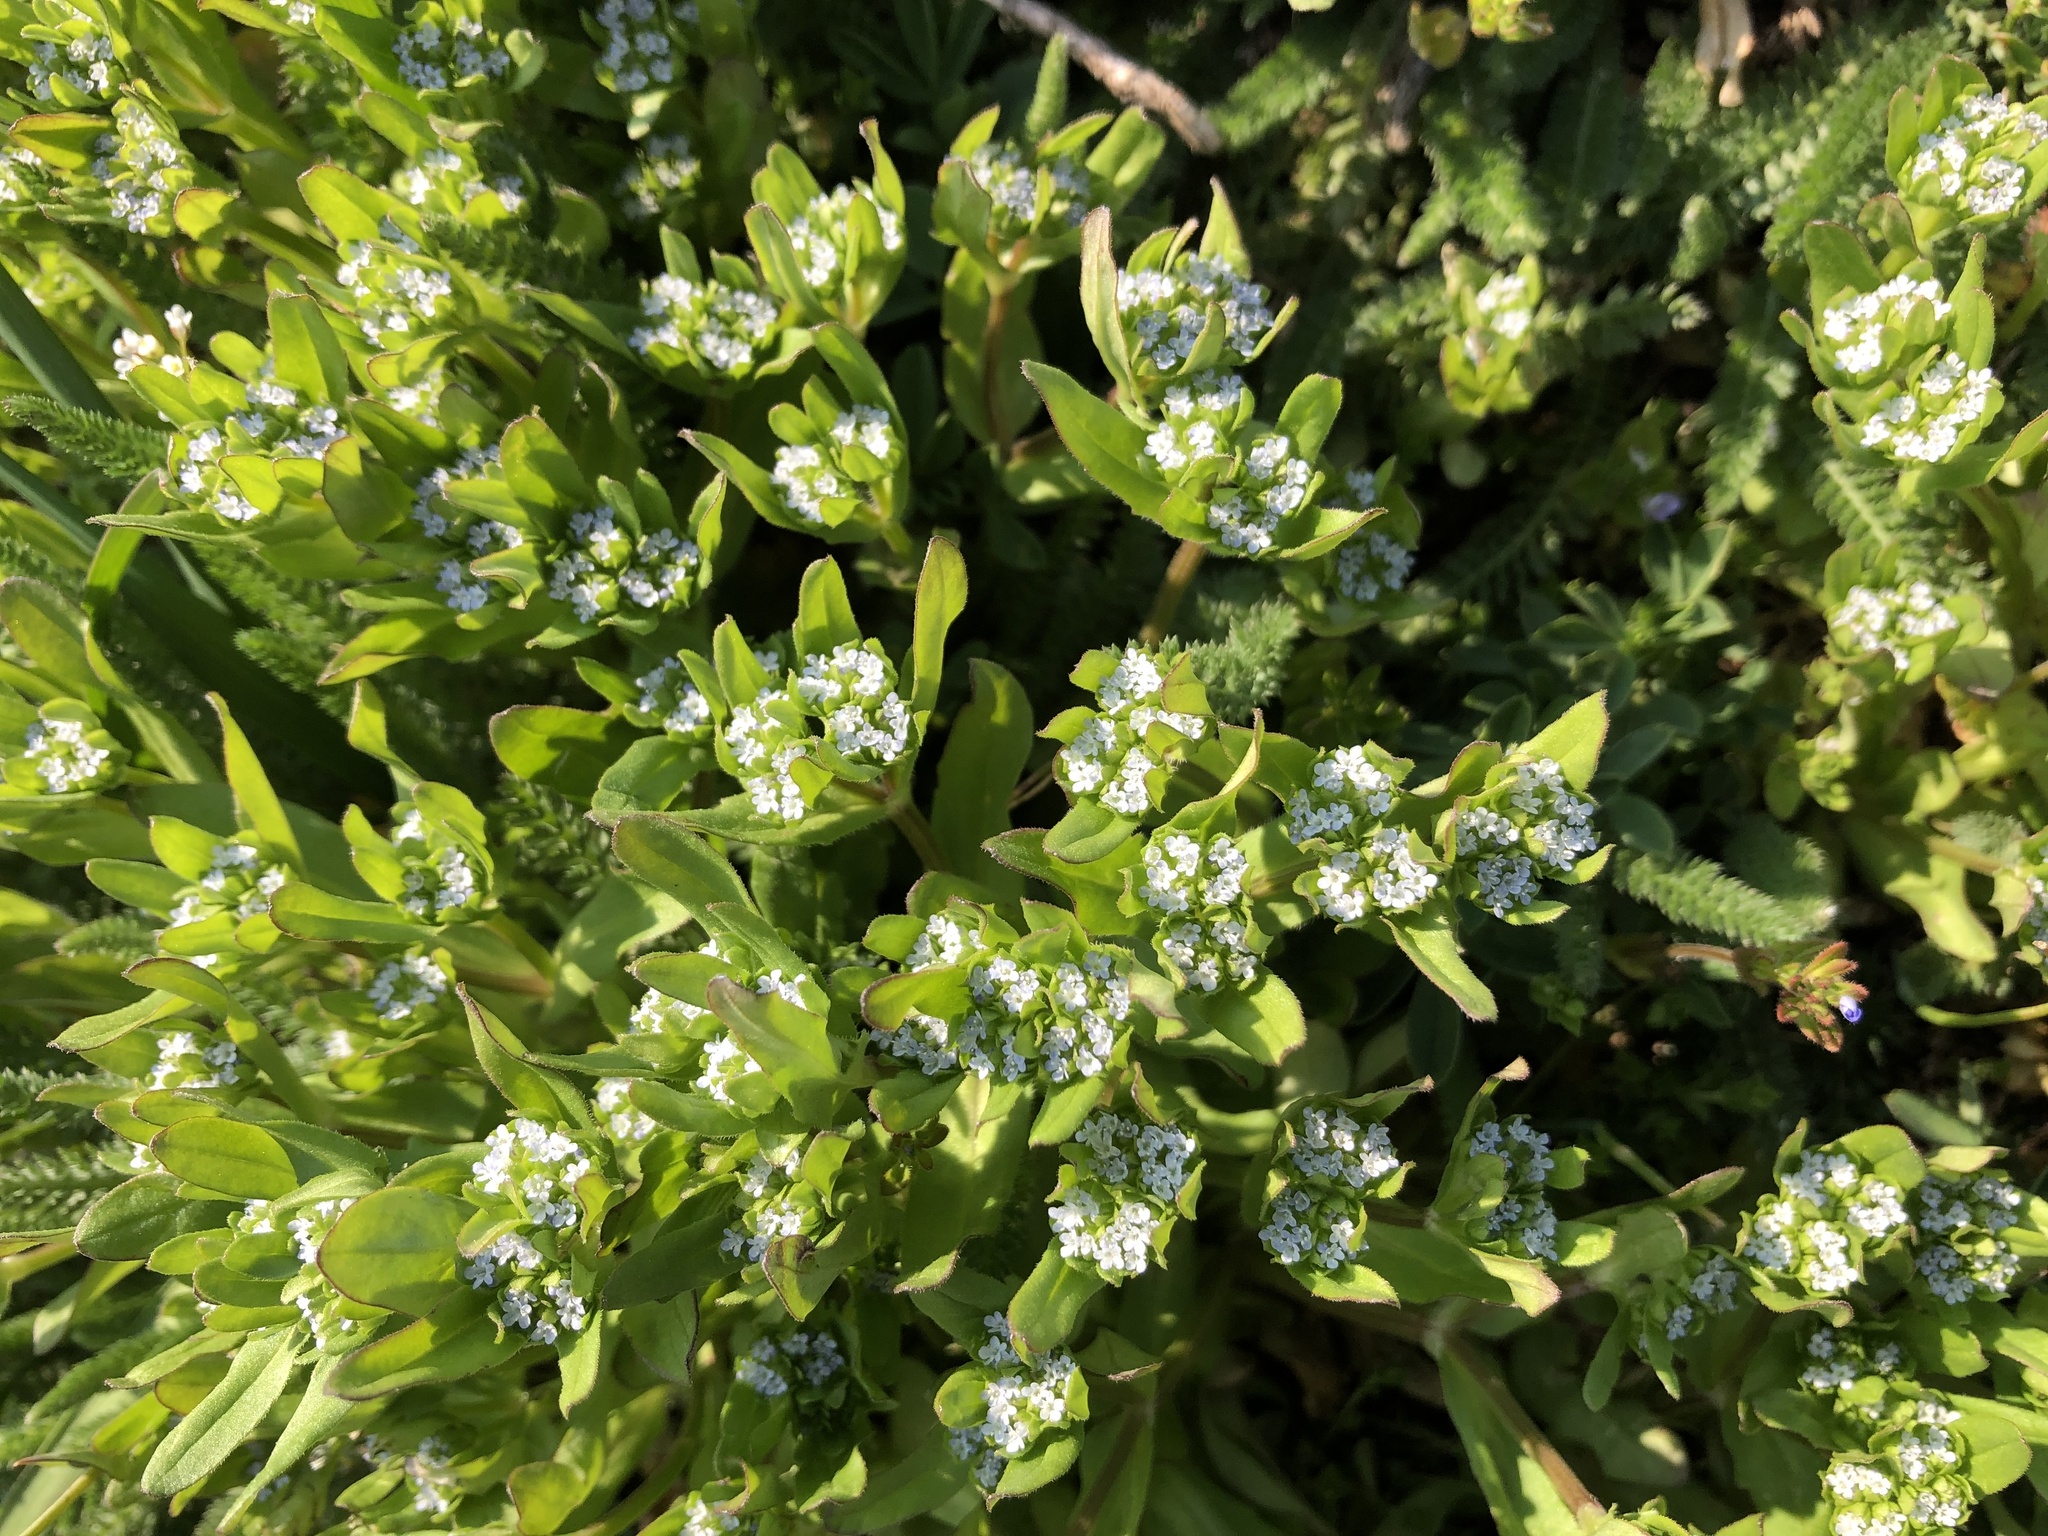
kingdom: Plantae
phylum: Tracheophyta
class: Magnoliopsida
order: Dipsacales
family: Caprifoliaceae
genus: Valerianella
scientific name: Valerianella locusta
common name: Common cornsalad
